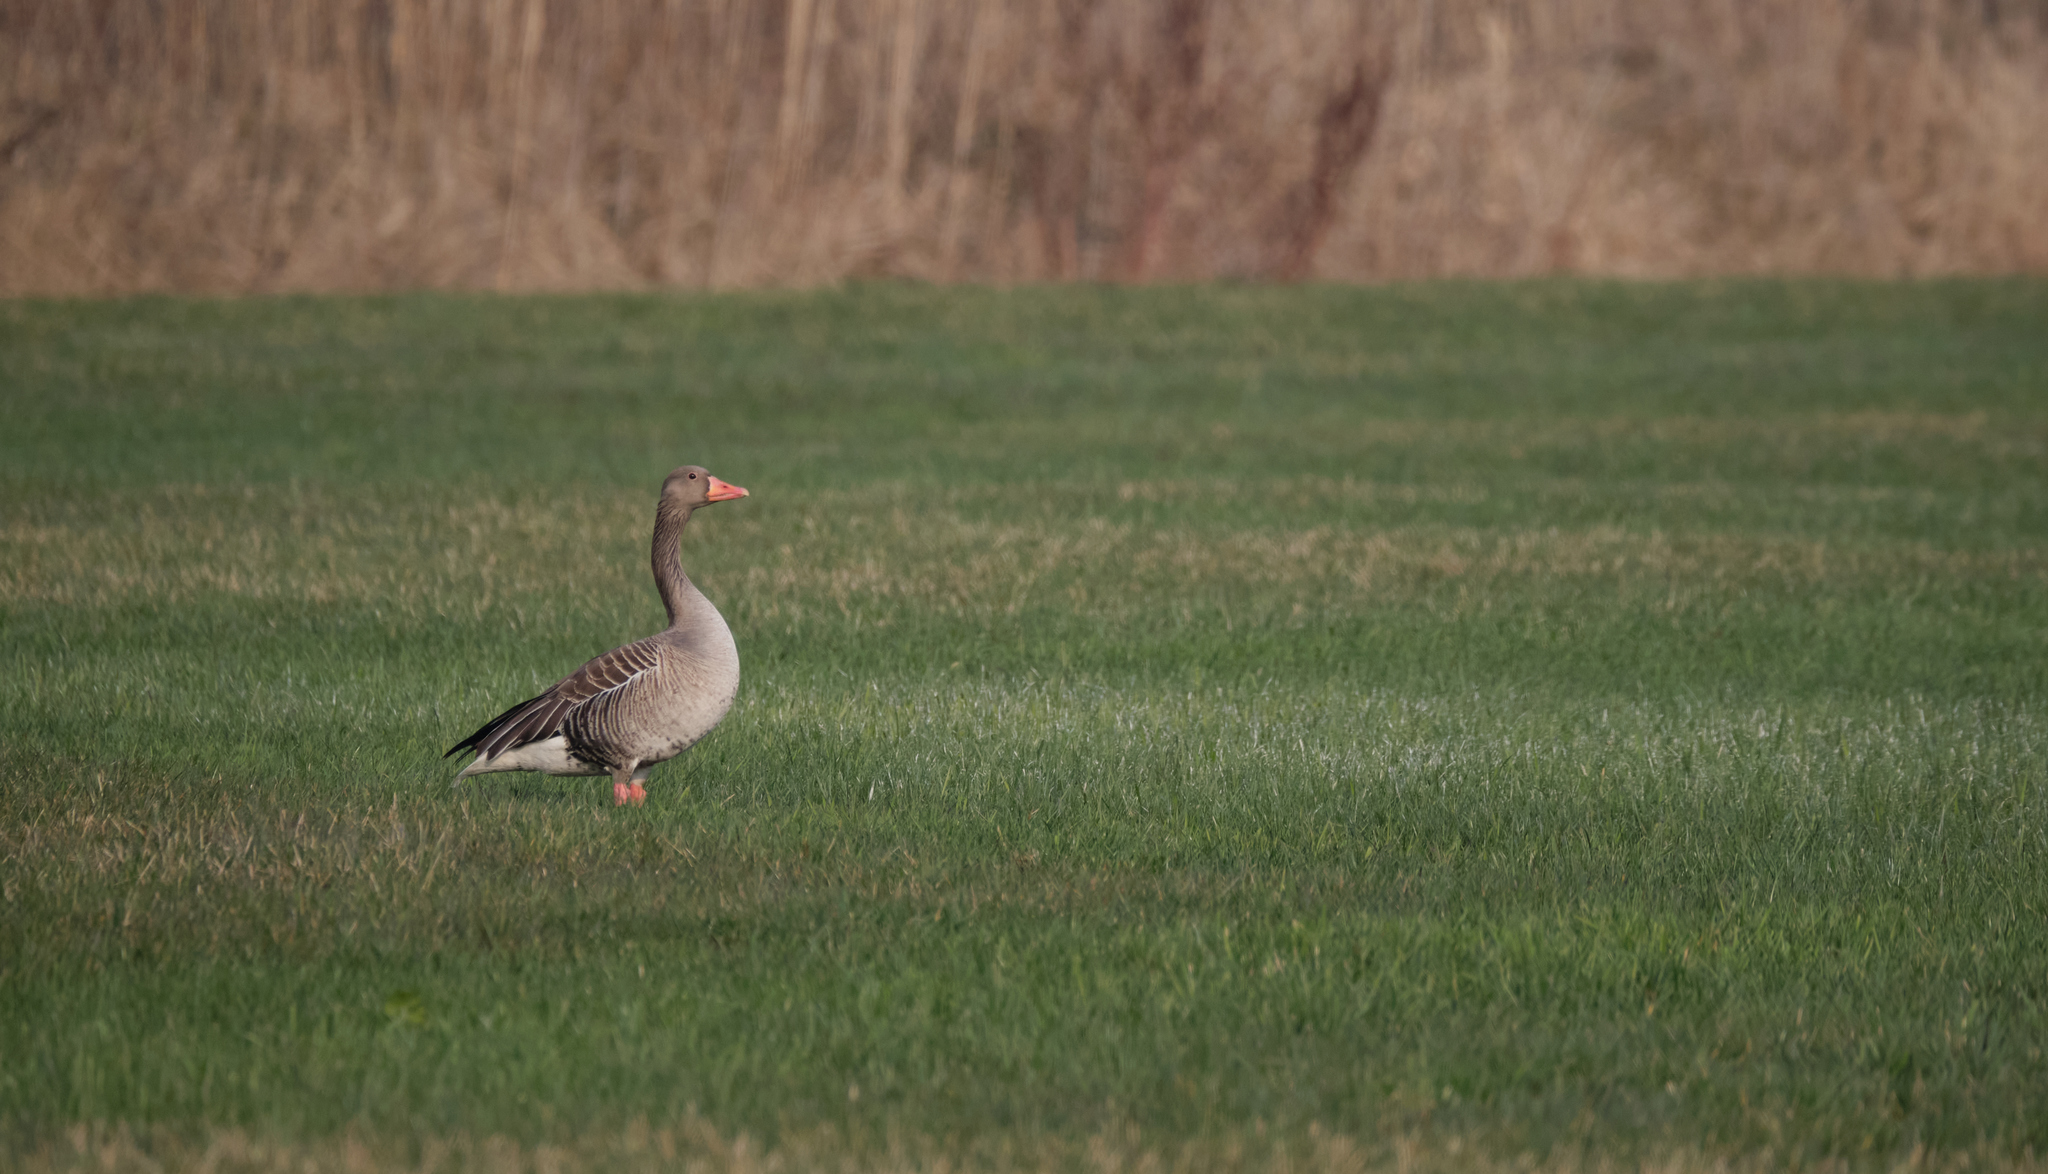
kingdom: Animalia
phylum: Chordata
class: Aves
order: Anseriformes
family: Anatidae
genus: Anser
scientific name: Anser anser
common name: Greylag goose
